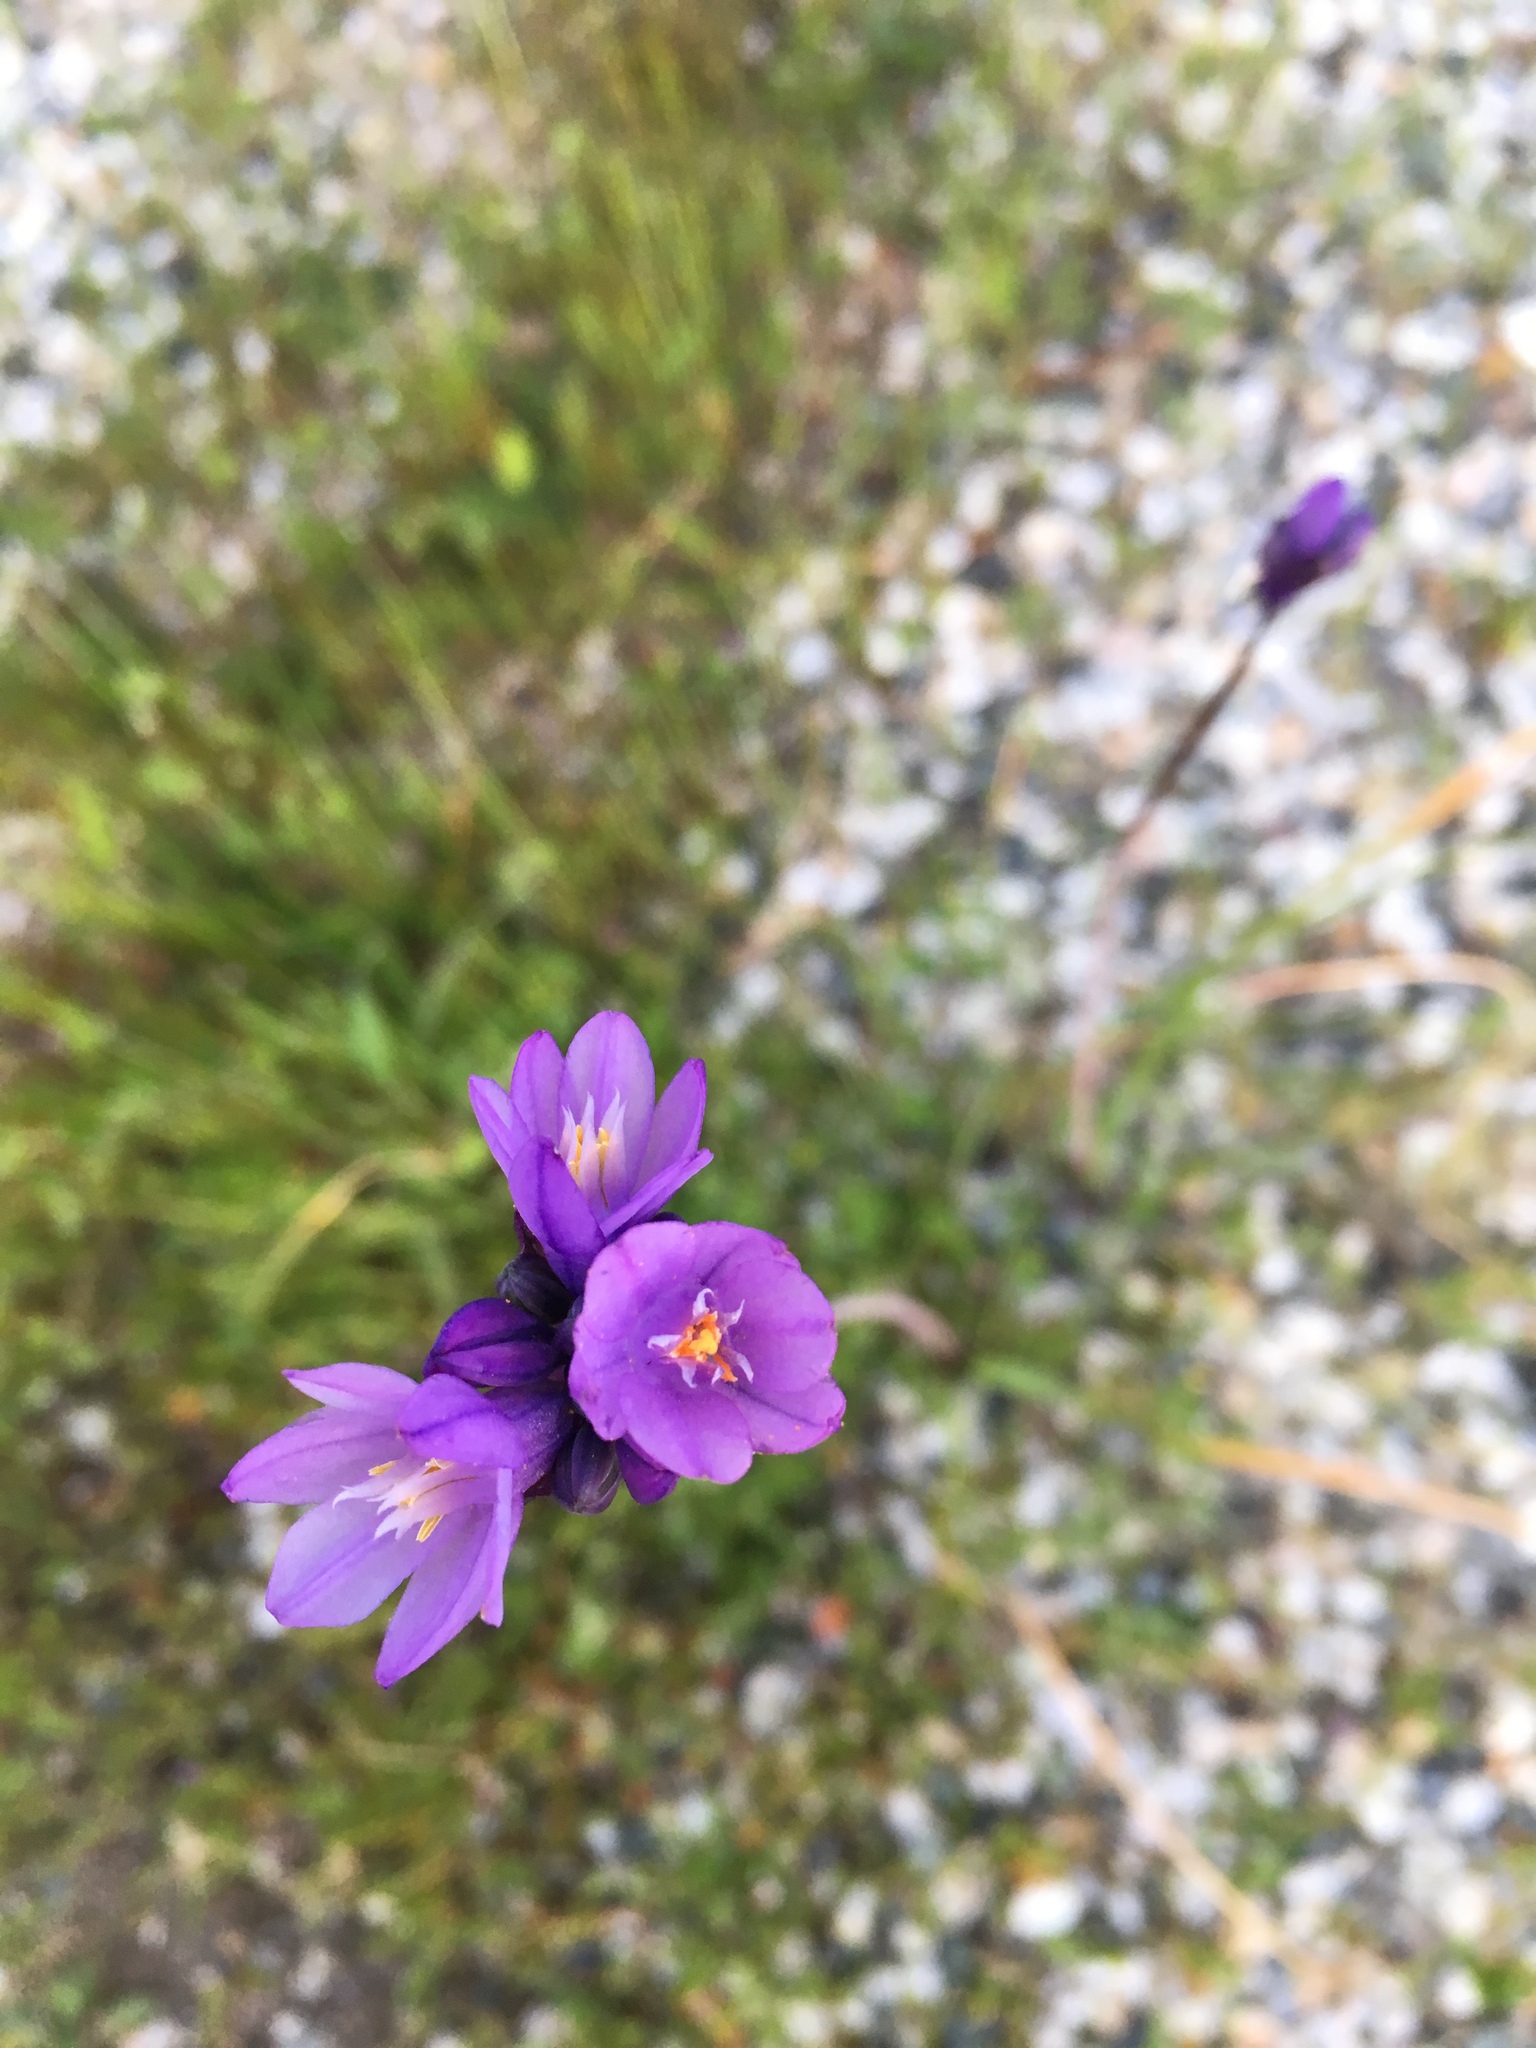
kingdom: Plantae
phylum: Tracheophyta
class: Liliopsida
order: Asparagales
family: Asparagaceae
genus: Dipterostemon
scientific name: Dipterostemon capitatus
